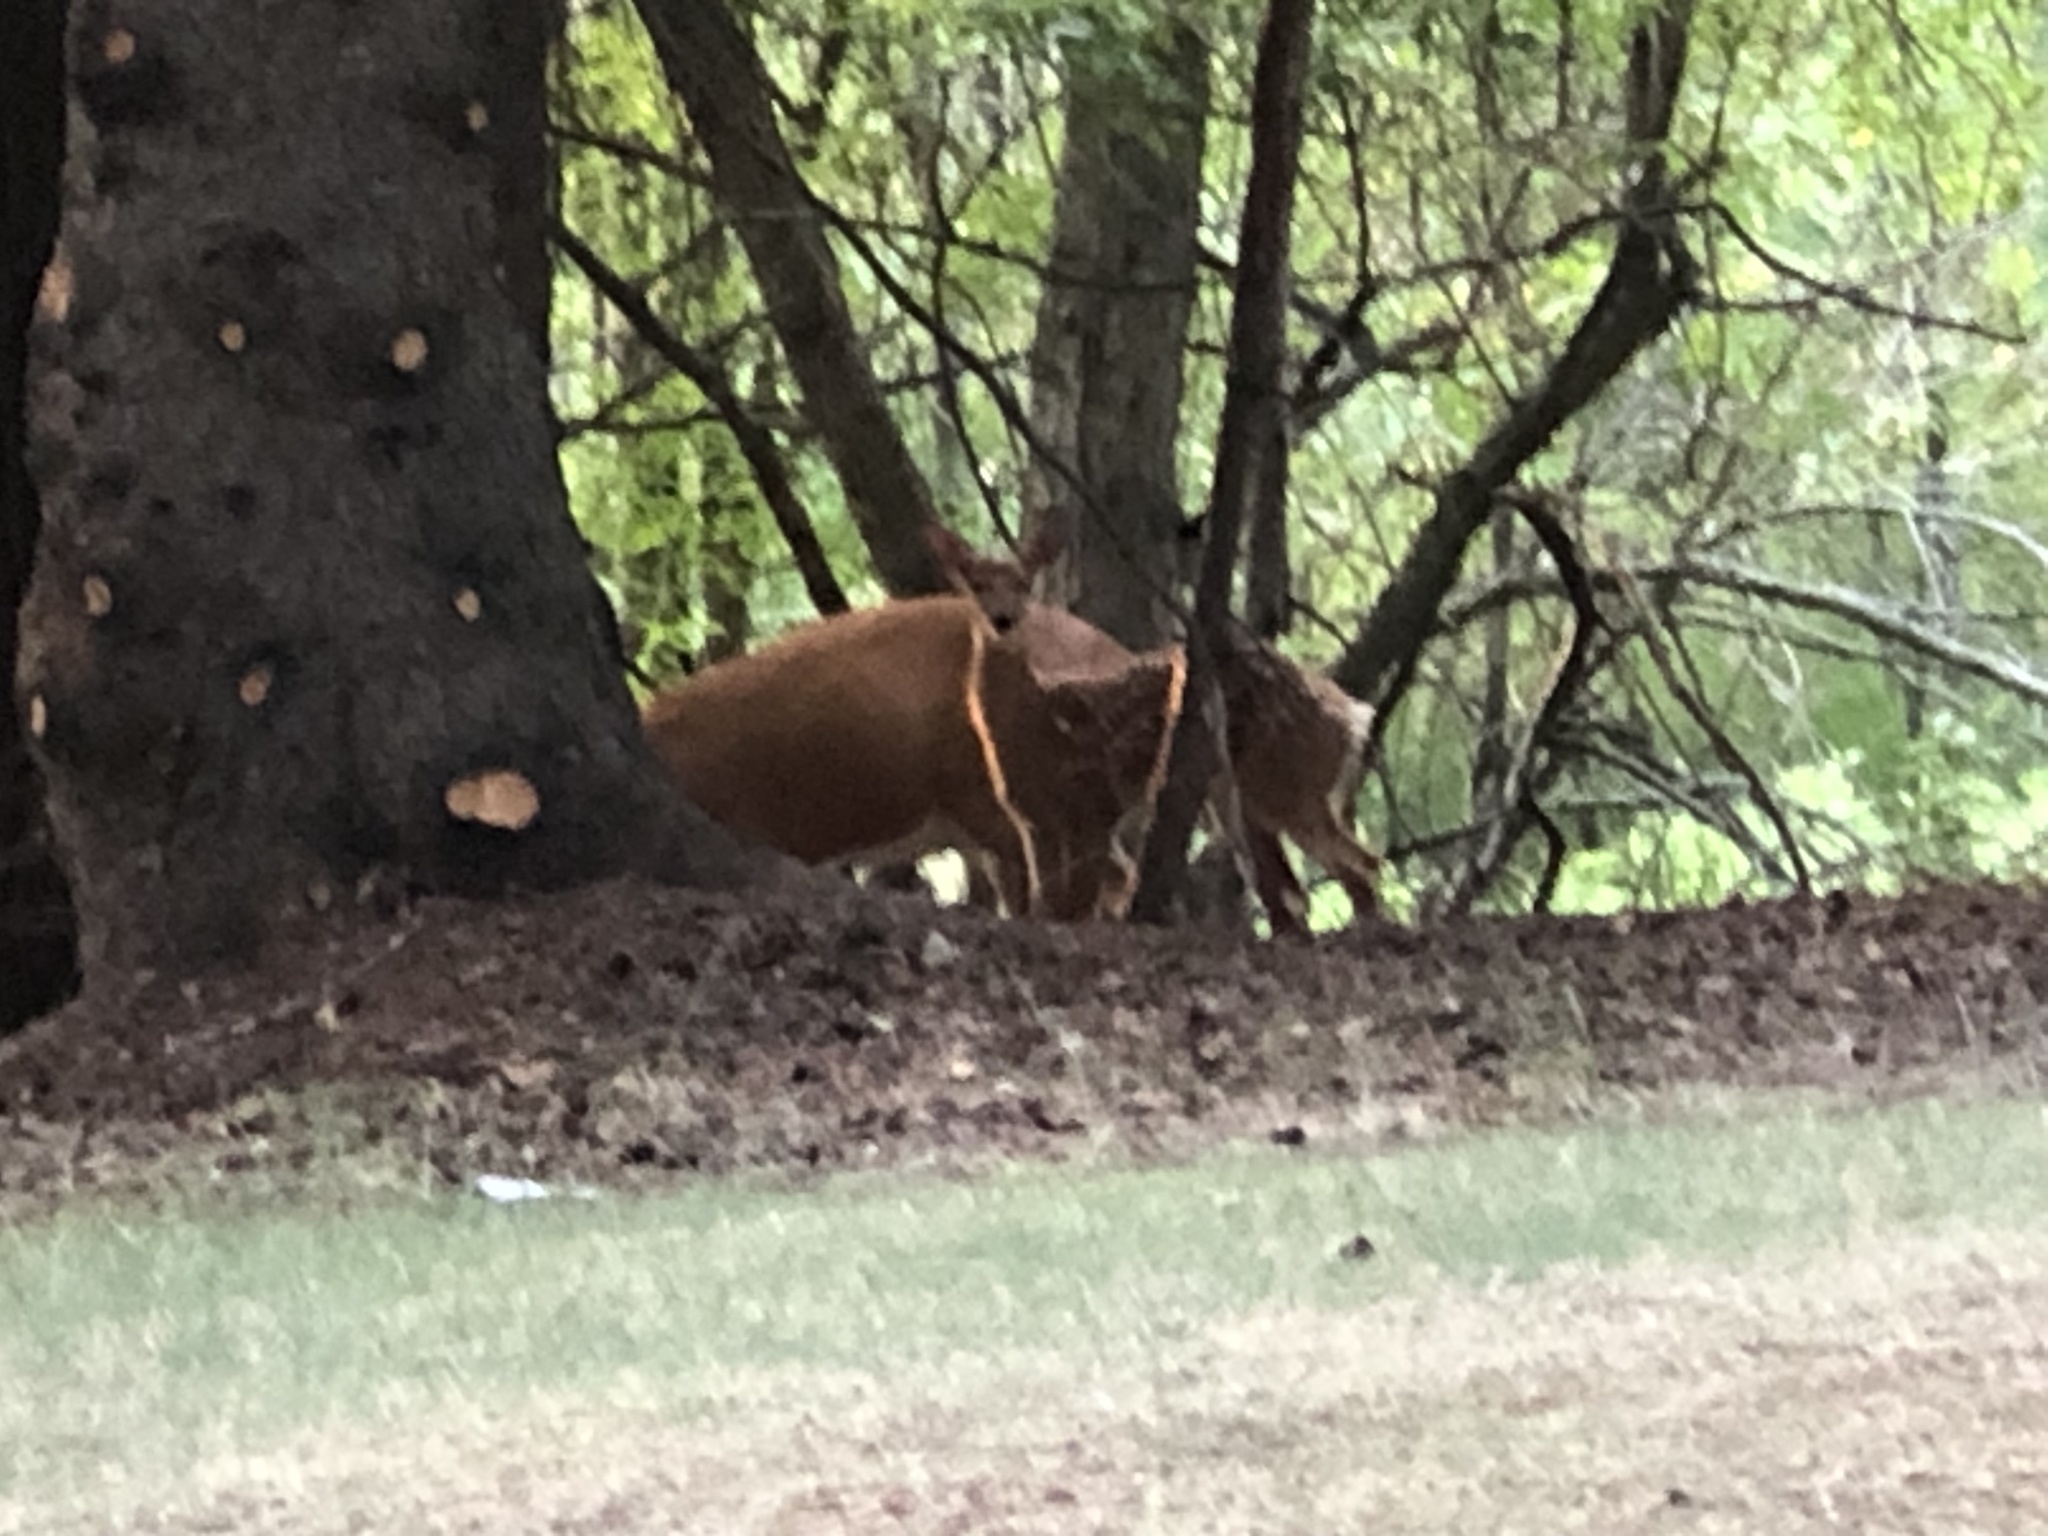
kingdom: Animalia
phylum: Chordata
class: Mammalia
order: Artiodactyla
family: Cervidae
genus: Odocoileus
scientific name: Odocoileus virginianus
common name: White-tailed deer
